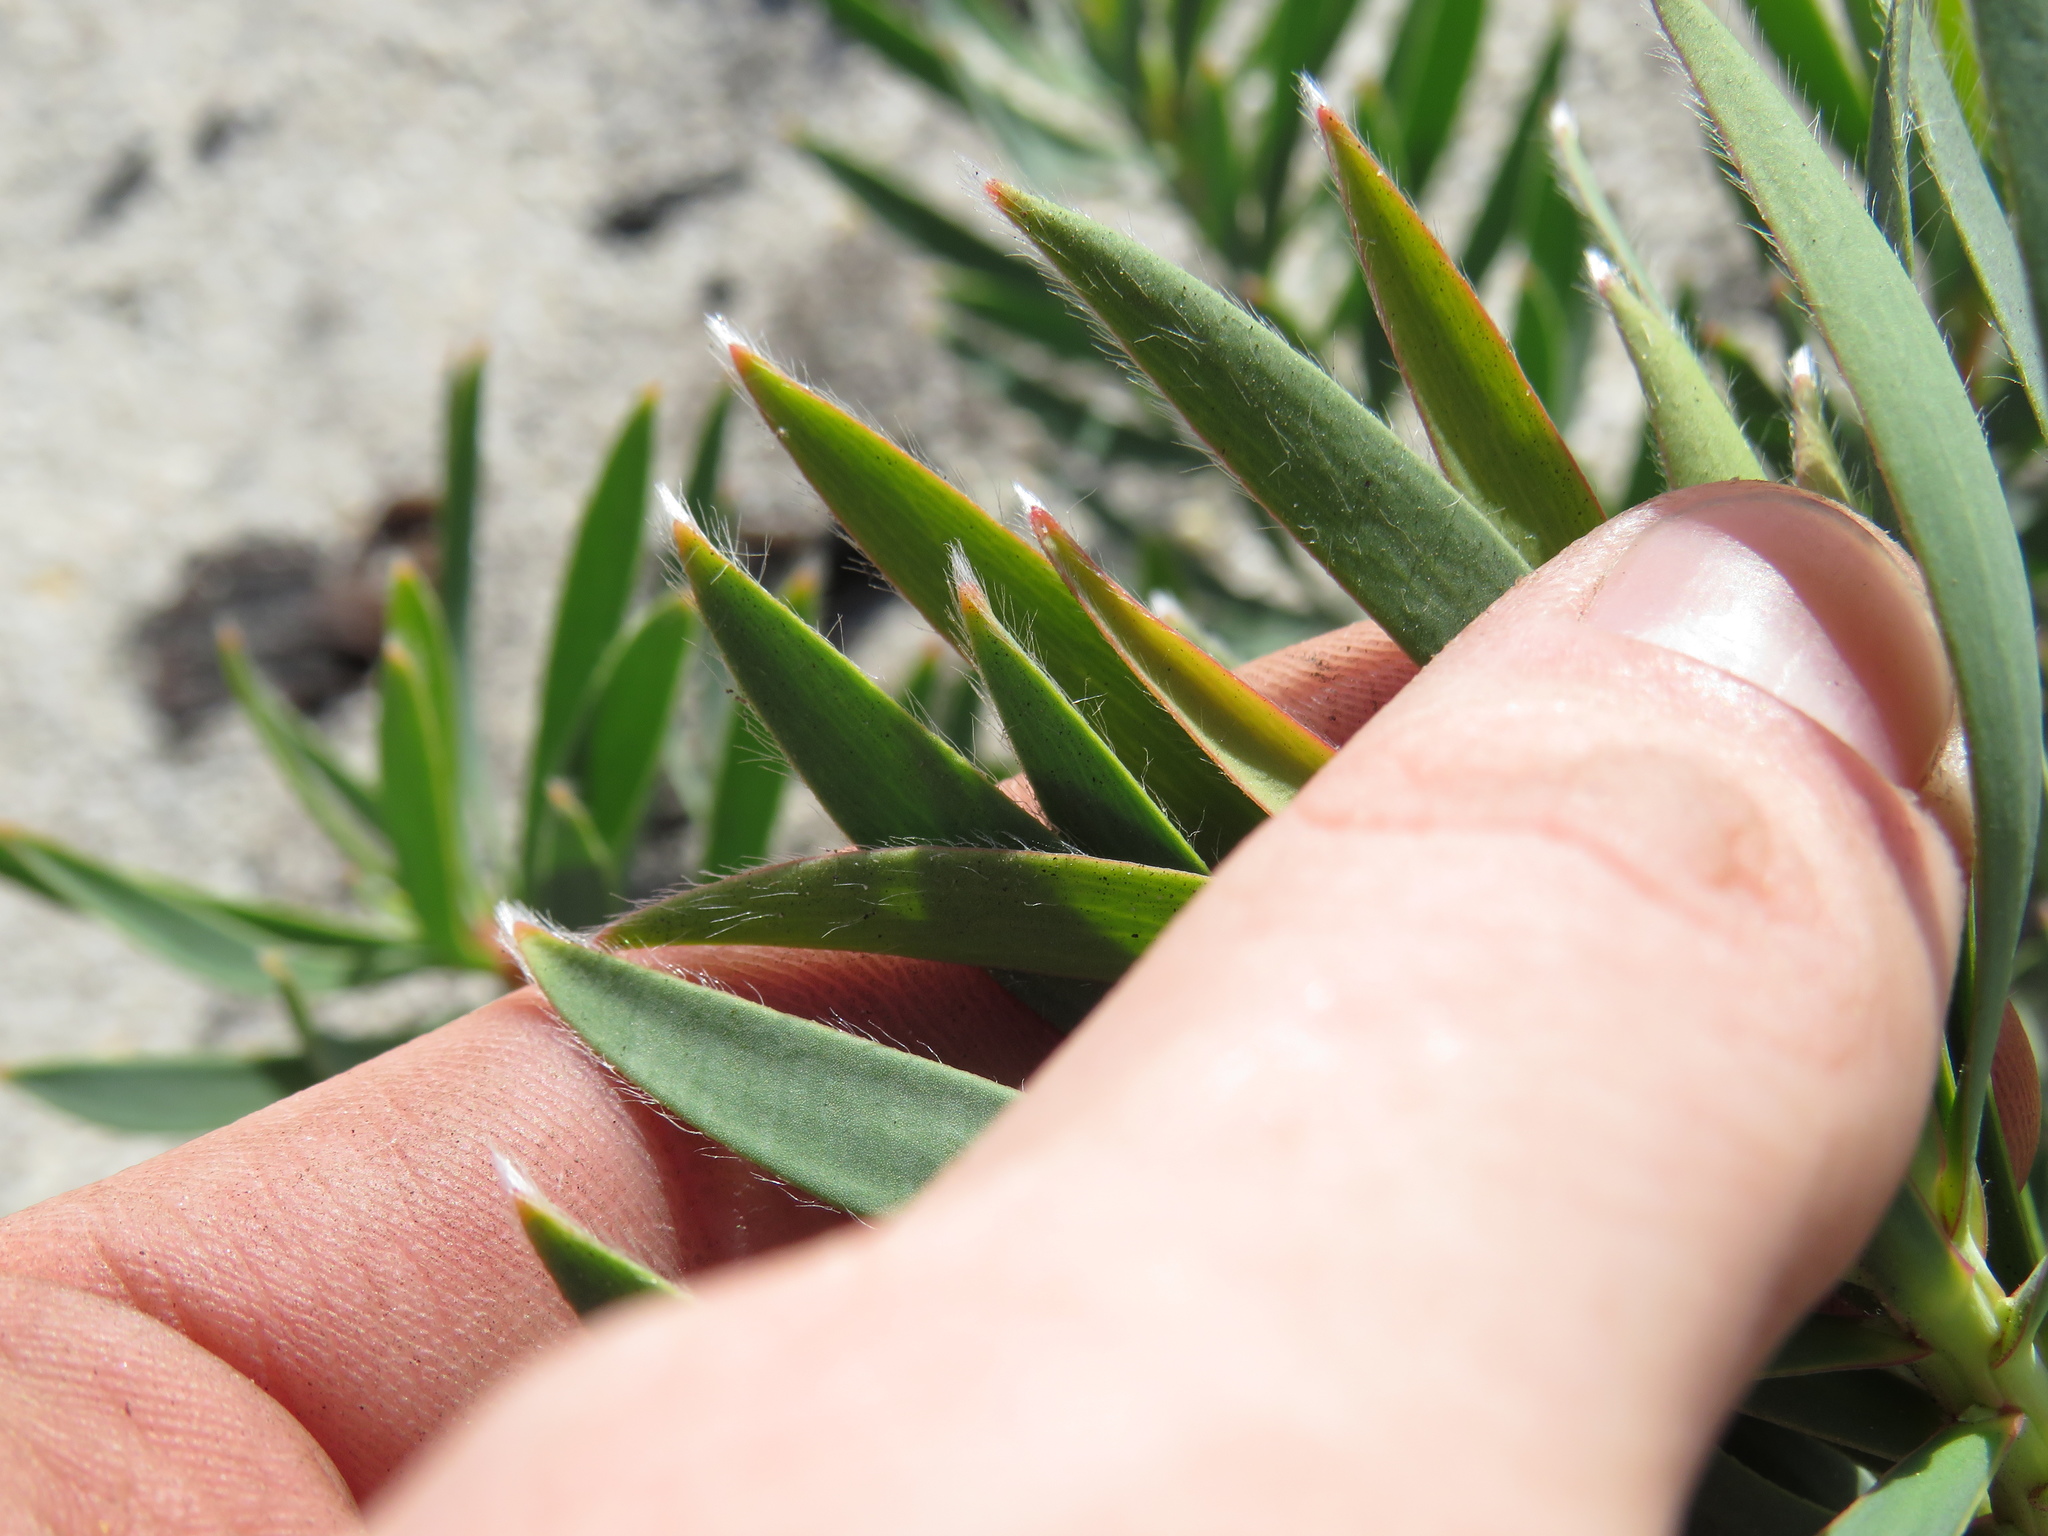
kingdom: Plantae
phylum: Tracheophyta
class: Magnoliopsida
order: Proteales
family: Proteaceae
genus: Leucadendron
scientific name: Leucadendron salignum
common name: Common sunshine conebush
